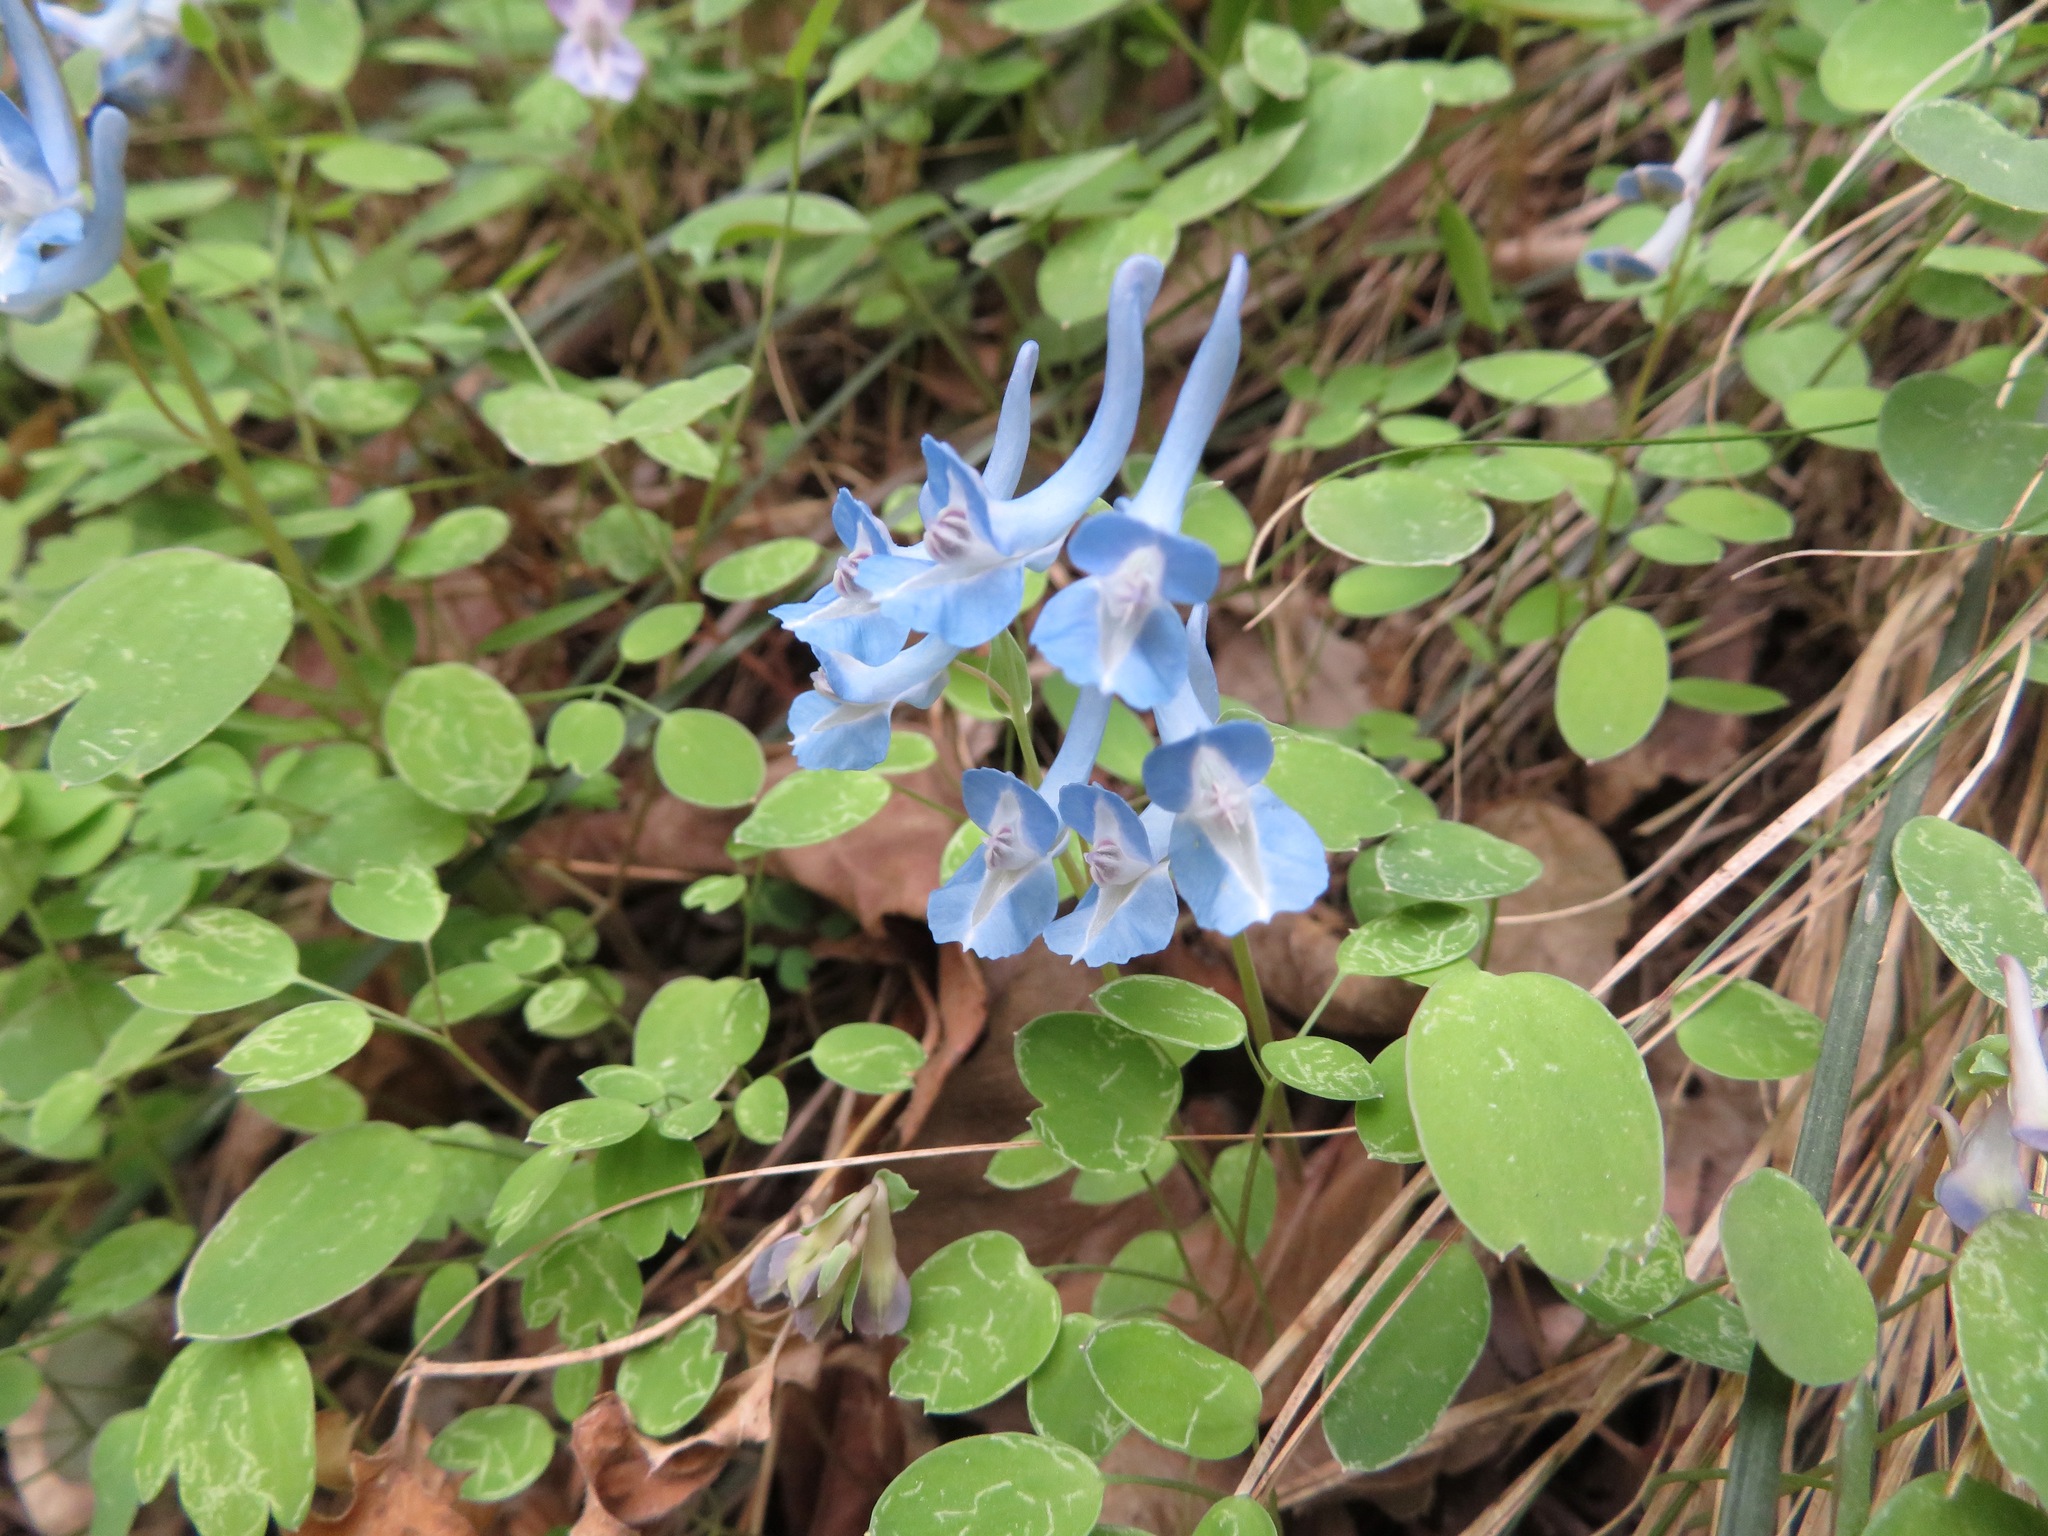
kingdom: Plantae
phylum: Tracheophyta
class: Magnoliopsida
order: Ranunculales
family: Papaveraceae
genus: Corydalis
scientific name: Corydalis caudata
